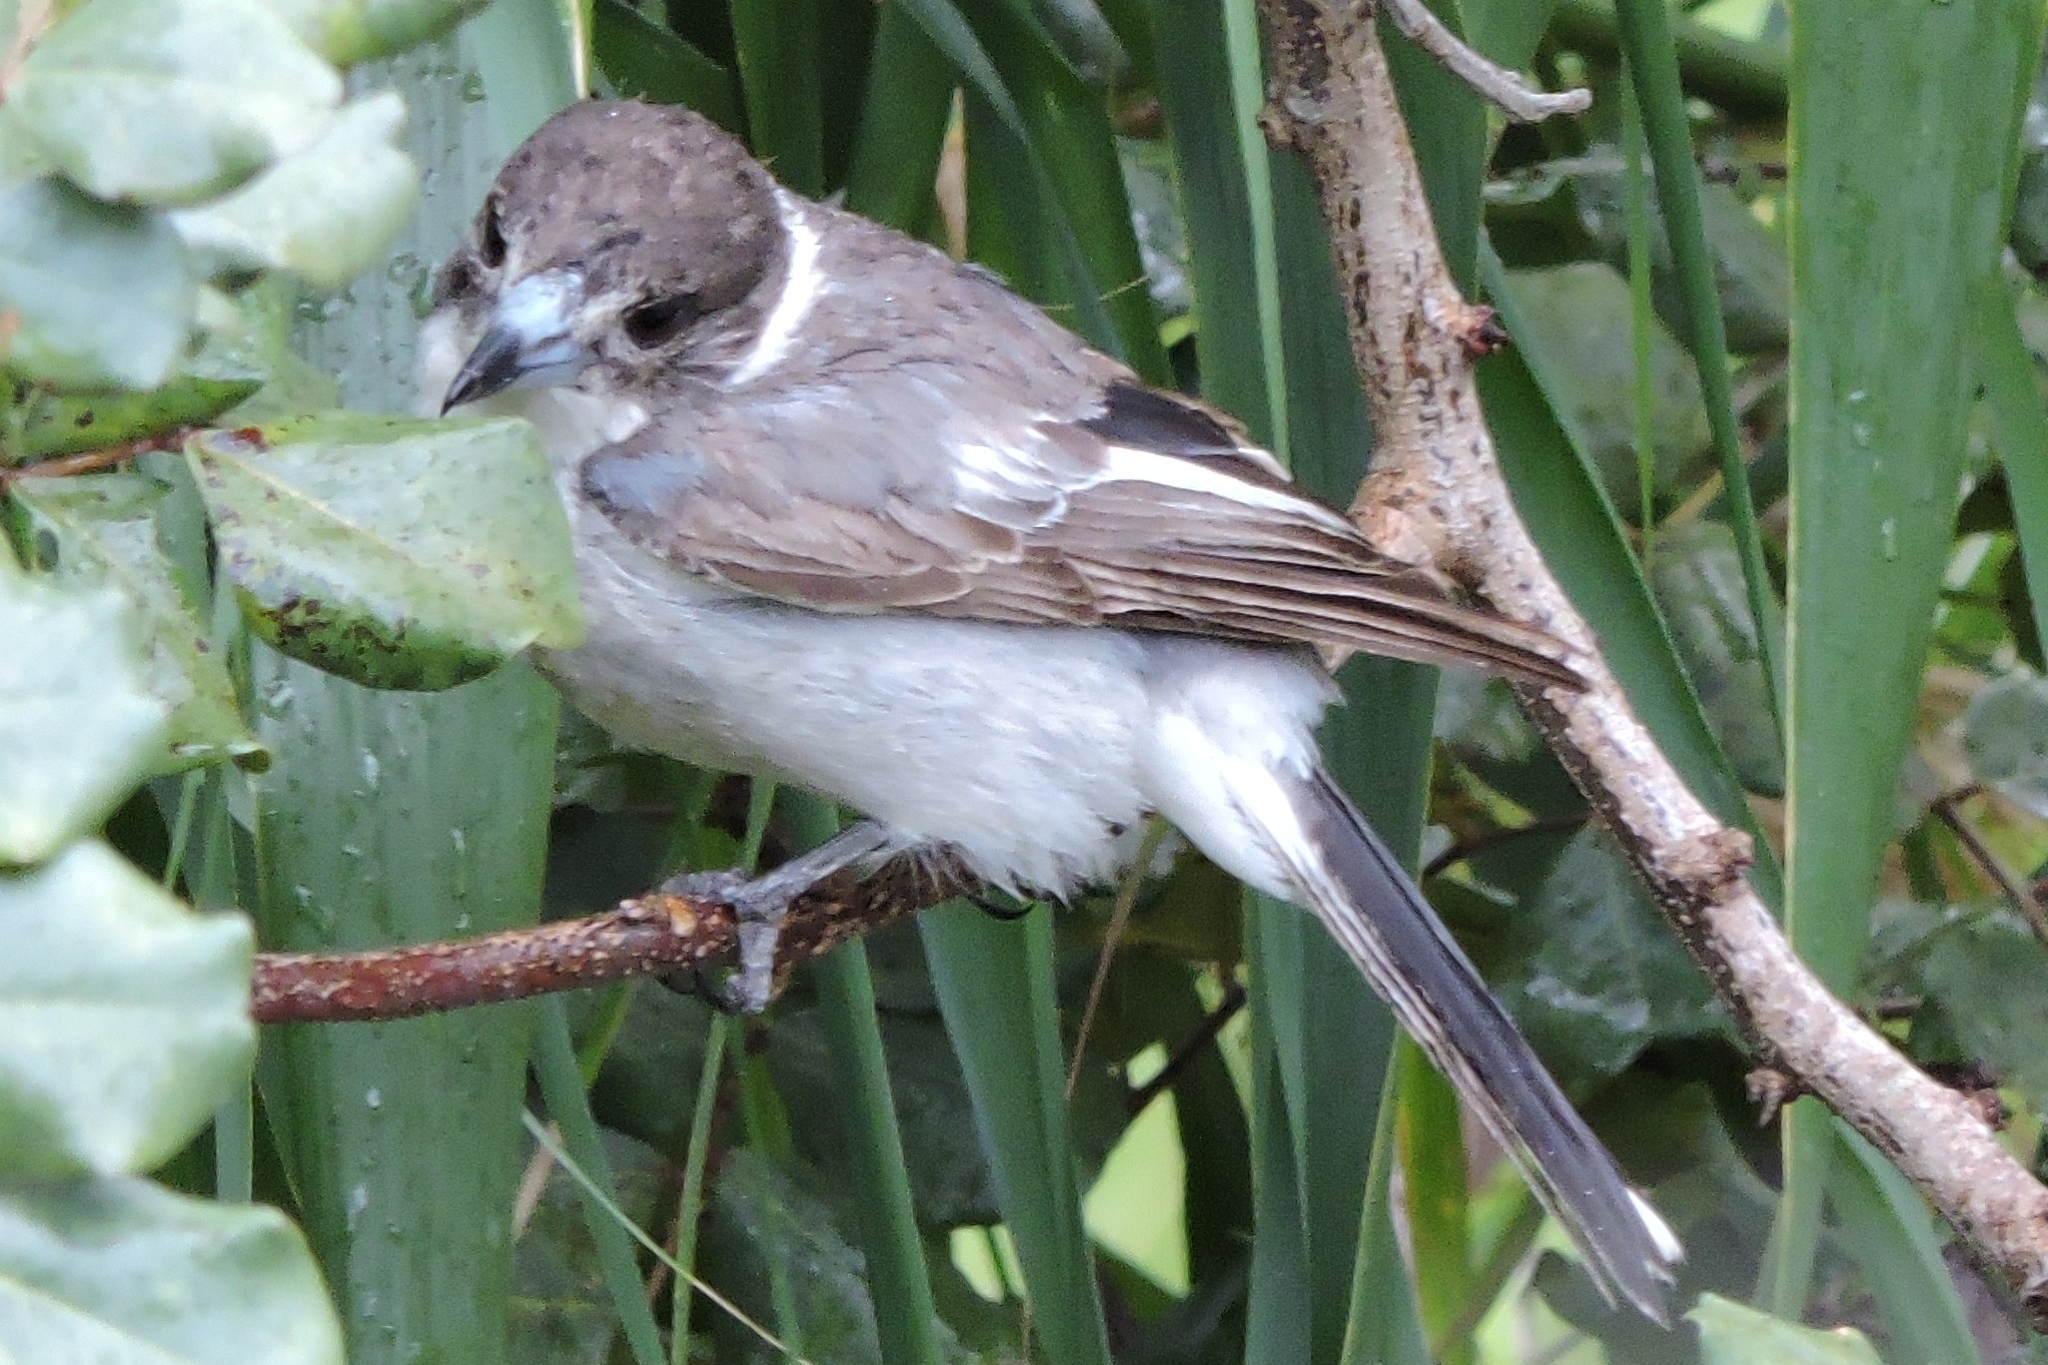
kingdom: Animalia
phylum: Chordata
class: Aves
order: Passeriformes
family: Cracticidae
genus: Cracticus
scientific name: Cracticus torquatus
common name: Grey butcherbird
